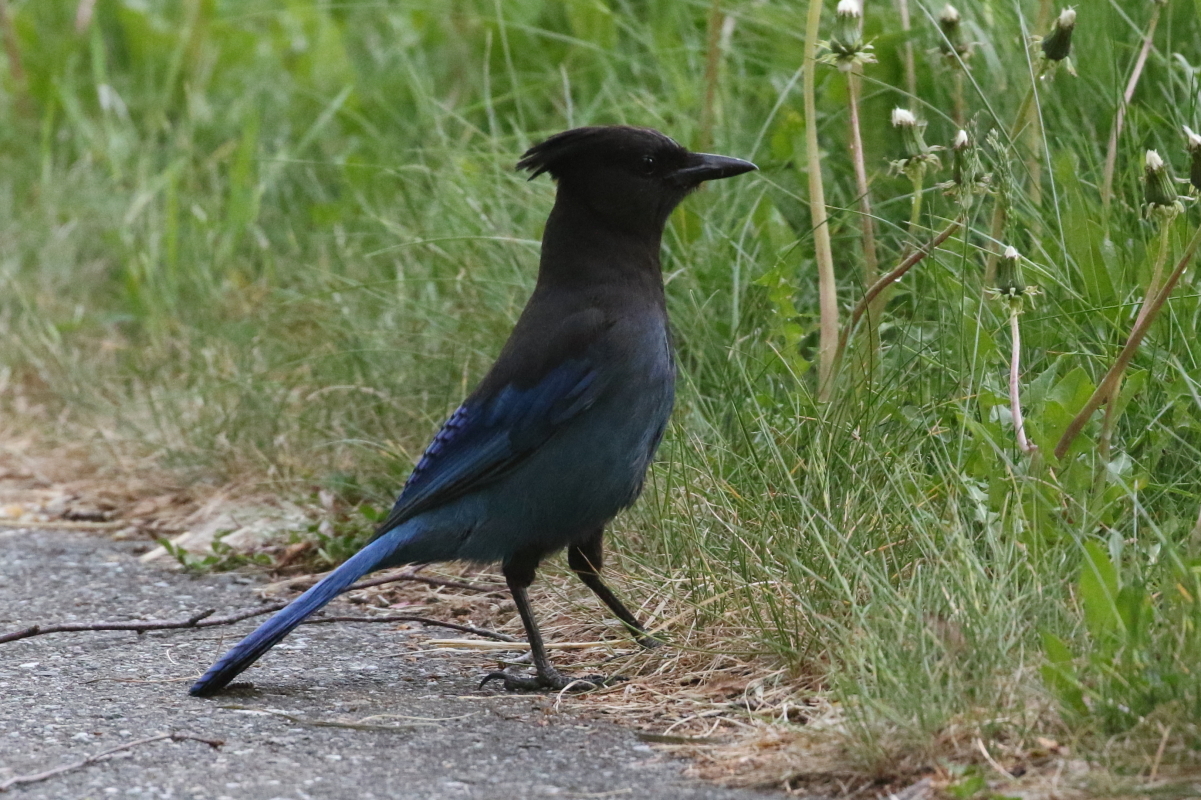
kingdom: Animalia
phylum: Chordata
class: Aves
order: Passeriformes
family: Corvidae
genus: Cyanocitta
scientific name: Cyanocitta stelleri
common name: Steller's jay
